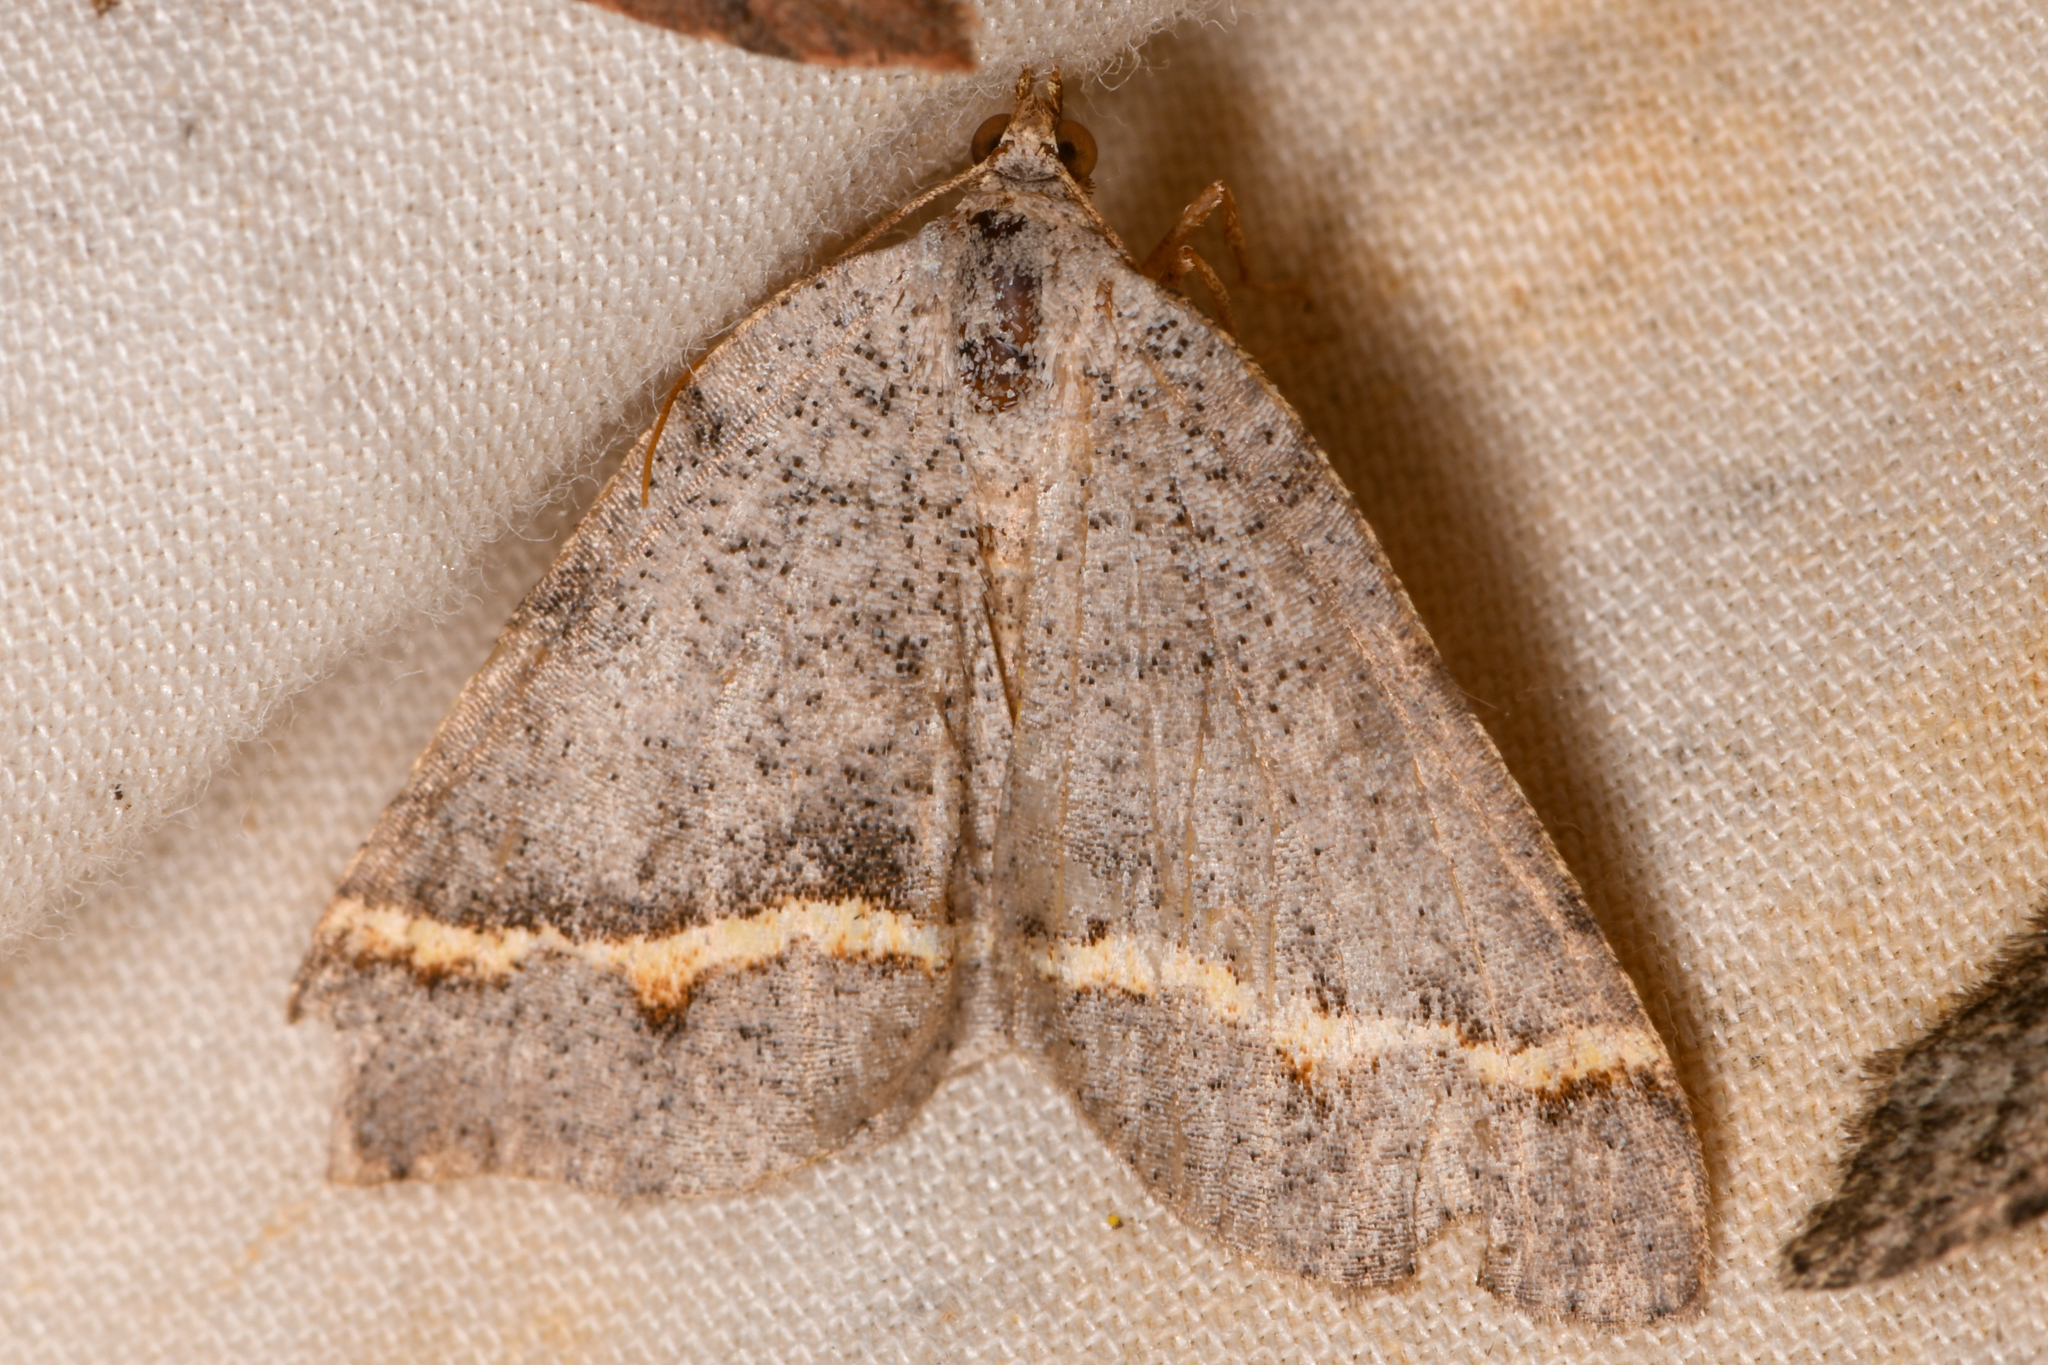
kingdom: Animalia
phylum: Arthropoda
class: Insecta
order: Lepidoptera
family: Geometridae
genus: Macaria
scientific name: Macaria austrinata
